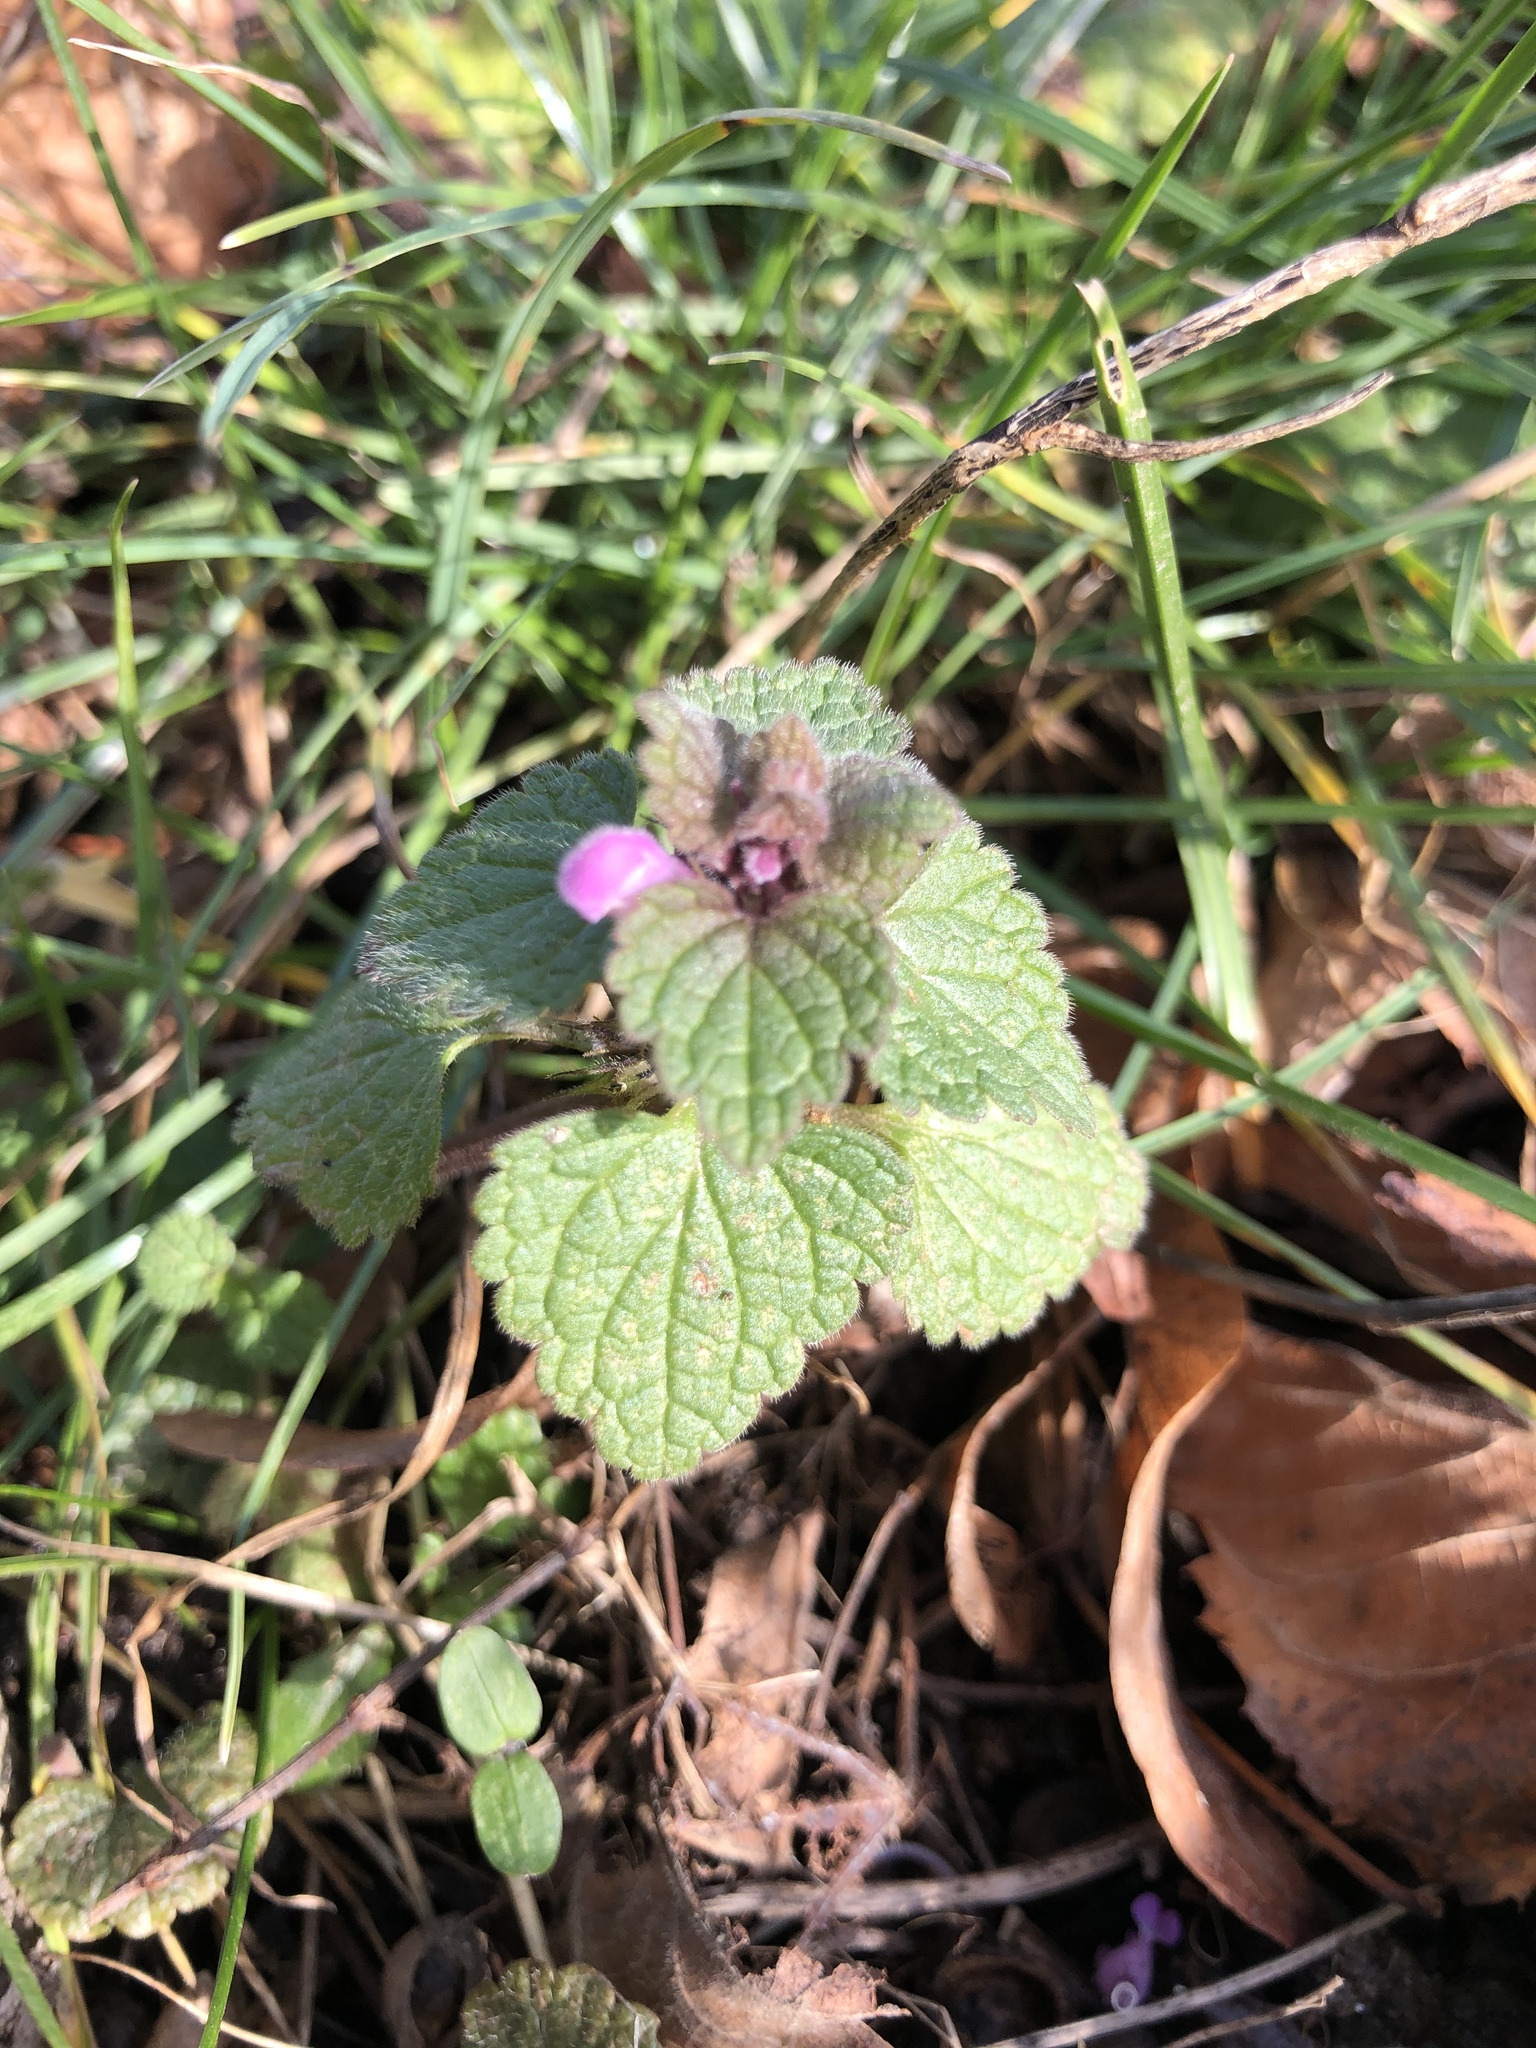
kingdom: Plantae
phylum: Tracheophyta
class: Magnoliopsida
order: Lamiales
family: Lamiaceae
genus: Lamium
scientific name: Lamium purpureum
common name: Red dead-nettle
